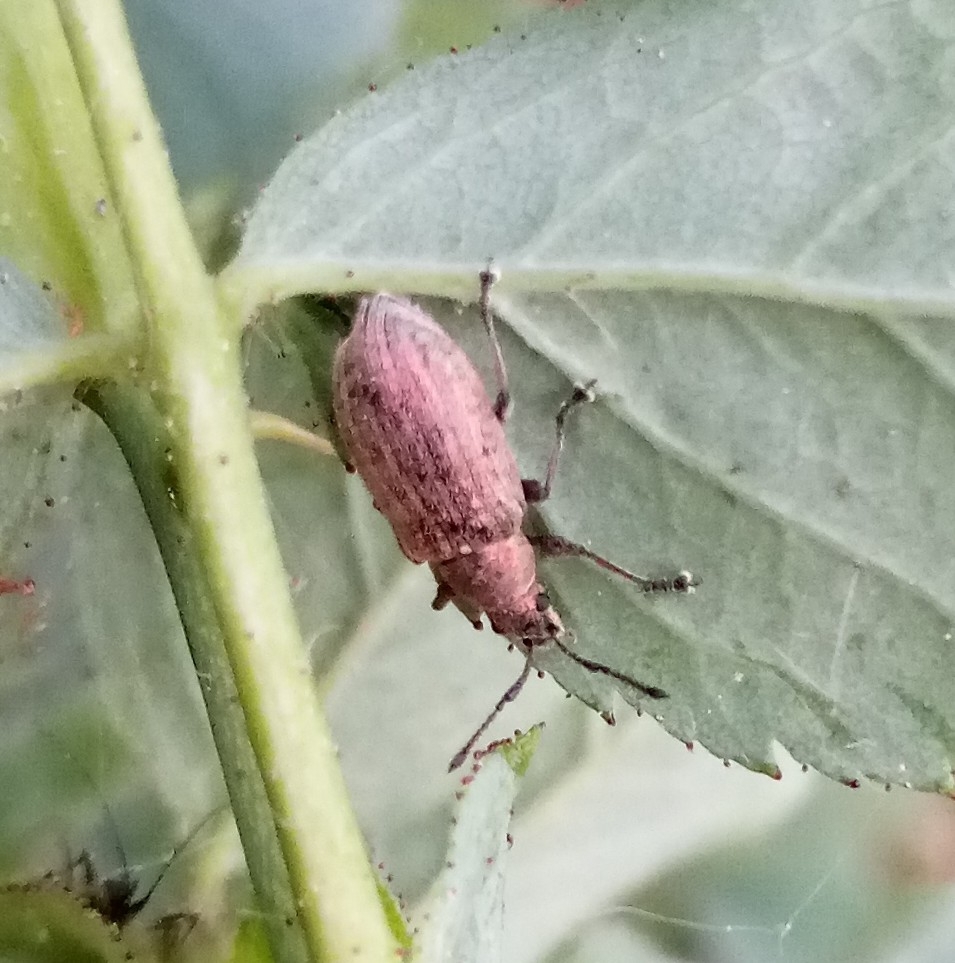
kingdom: Animalia
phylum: Arthropoda
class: Insecta
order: Coleoptera
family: Curculionidae
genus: Phyllobius
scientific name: Phyllobius pyri
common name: Common leaf weevil
